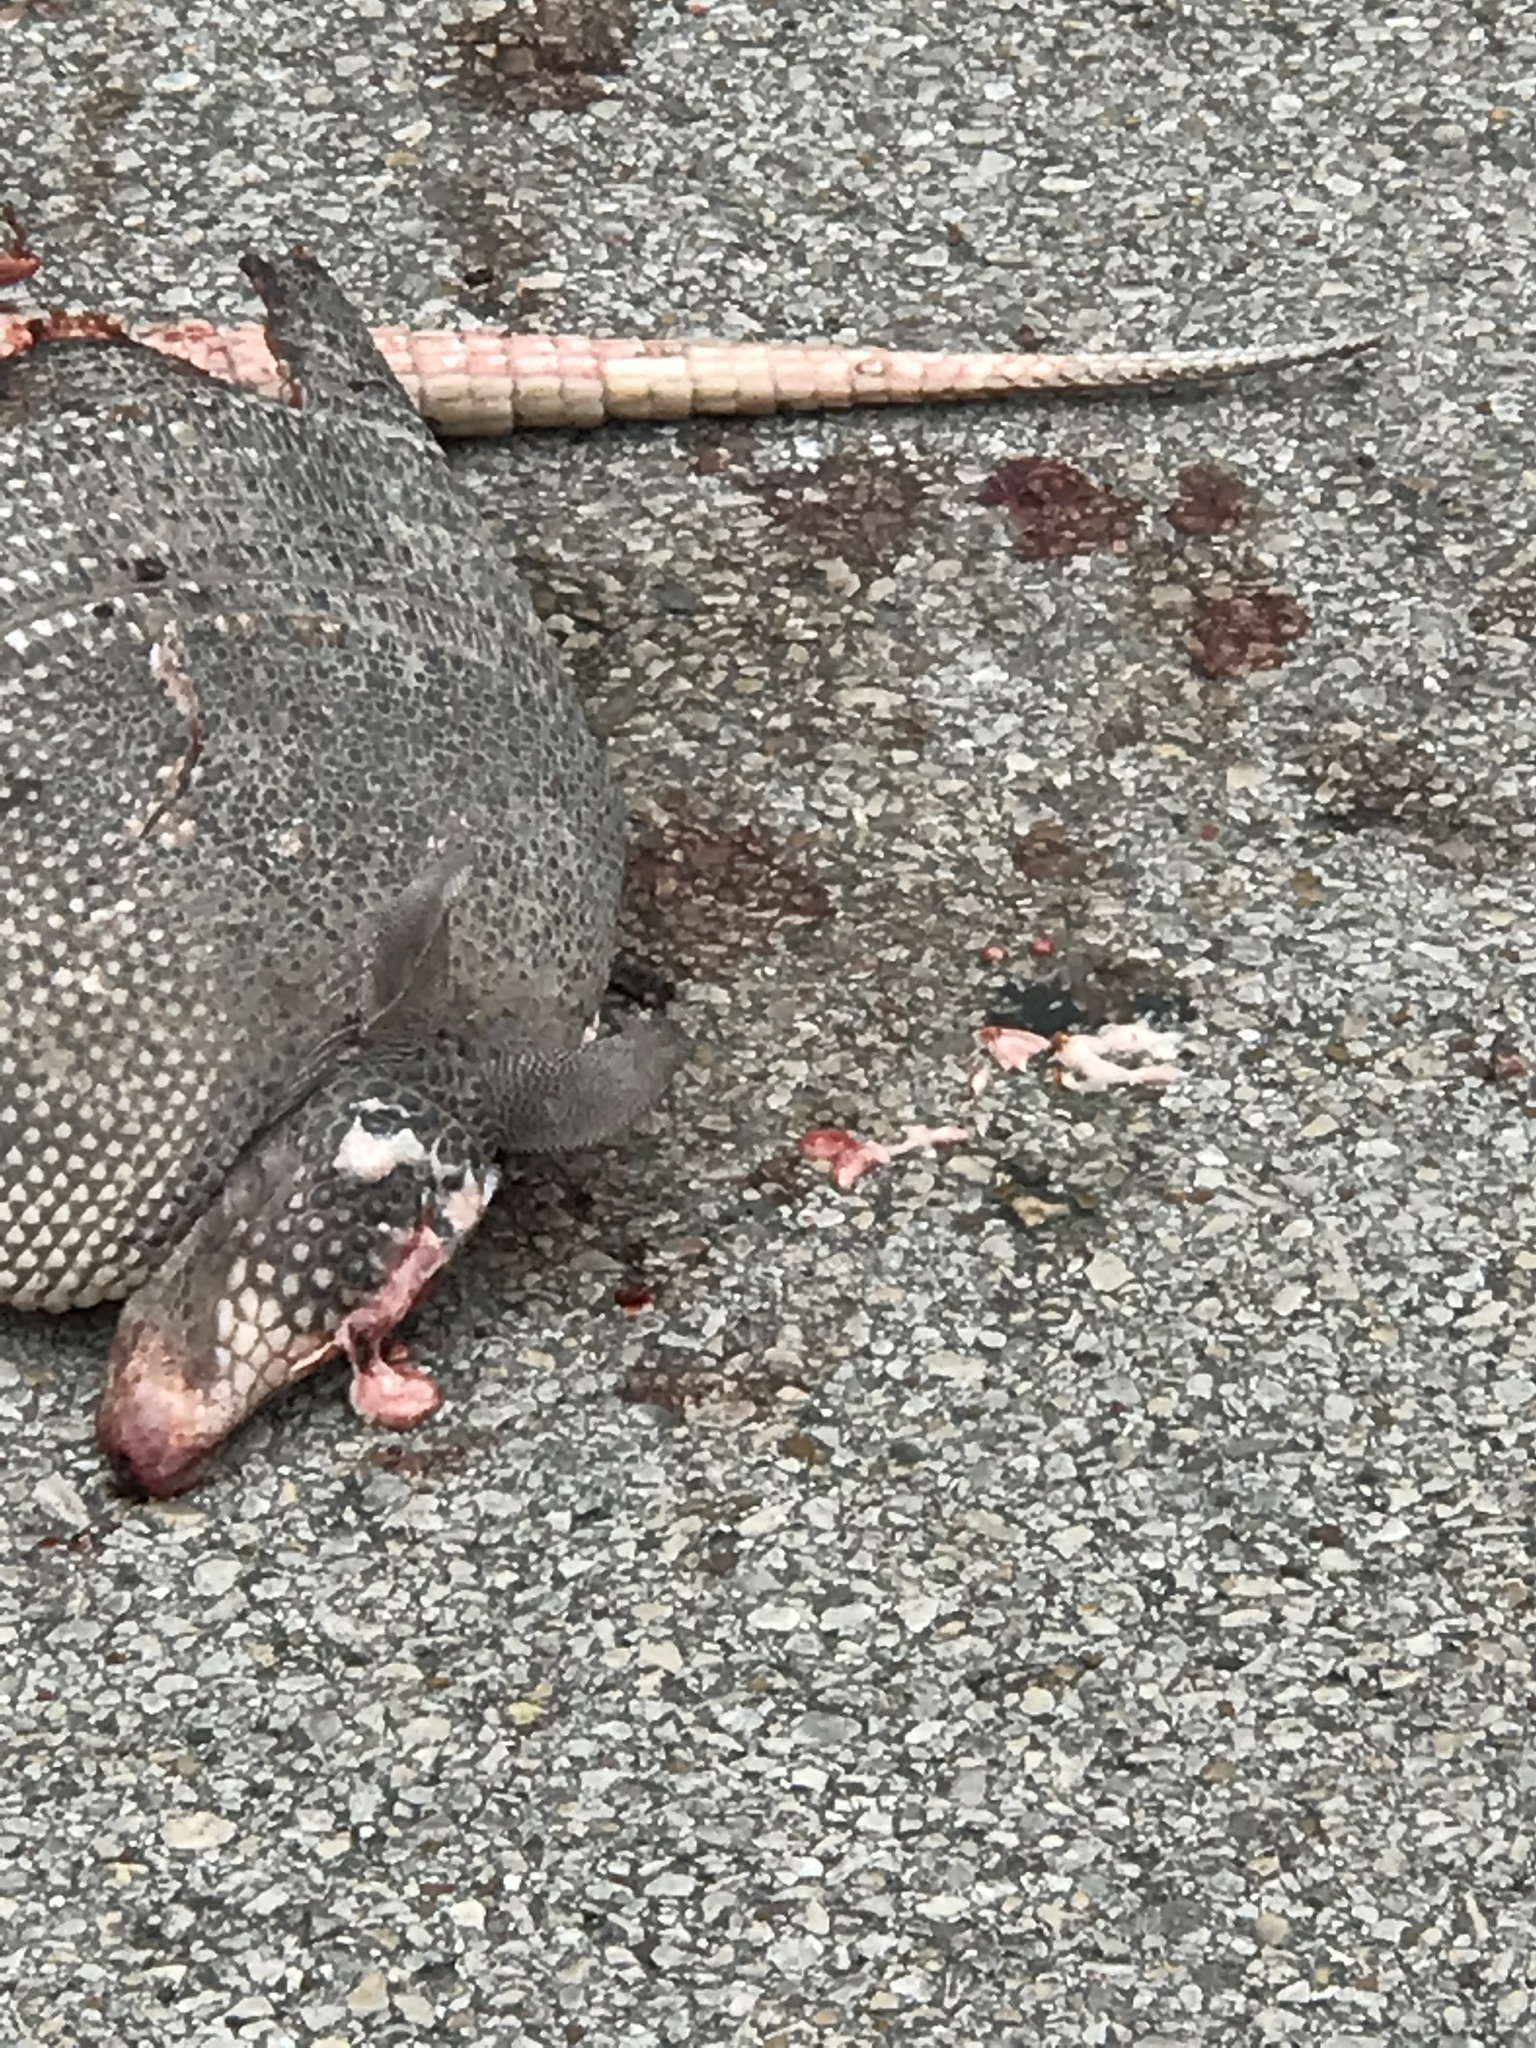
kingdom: Animalia
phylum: Chordata
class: Mammalia
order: Cingulata
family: Dasypodidae
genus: Dasypus
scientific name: Dasypus novemcinctus
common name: Nine-banded armadillo
